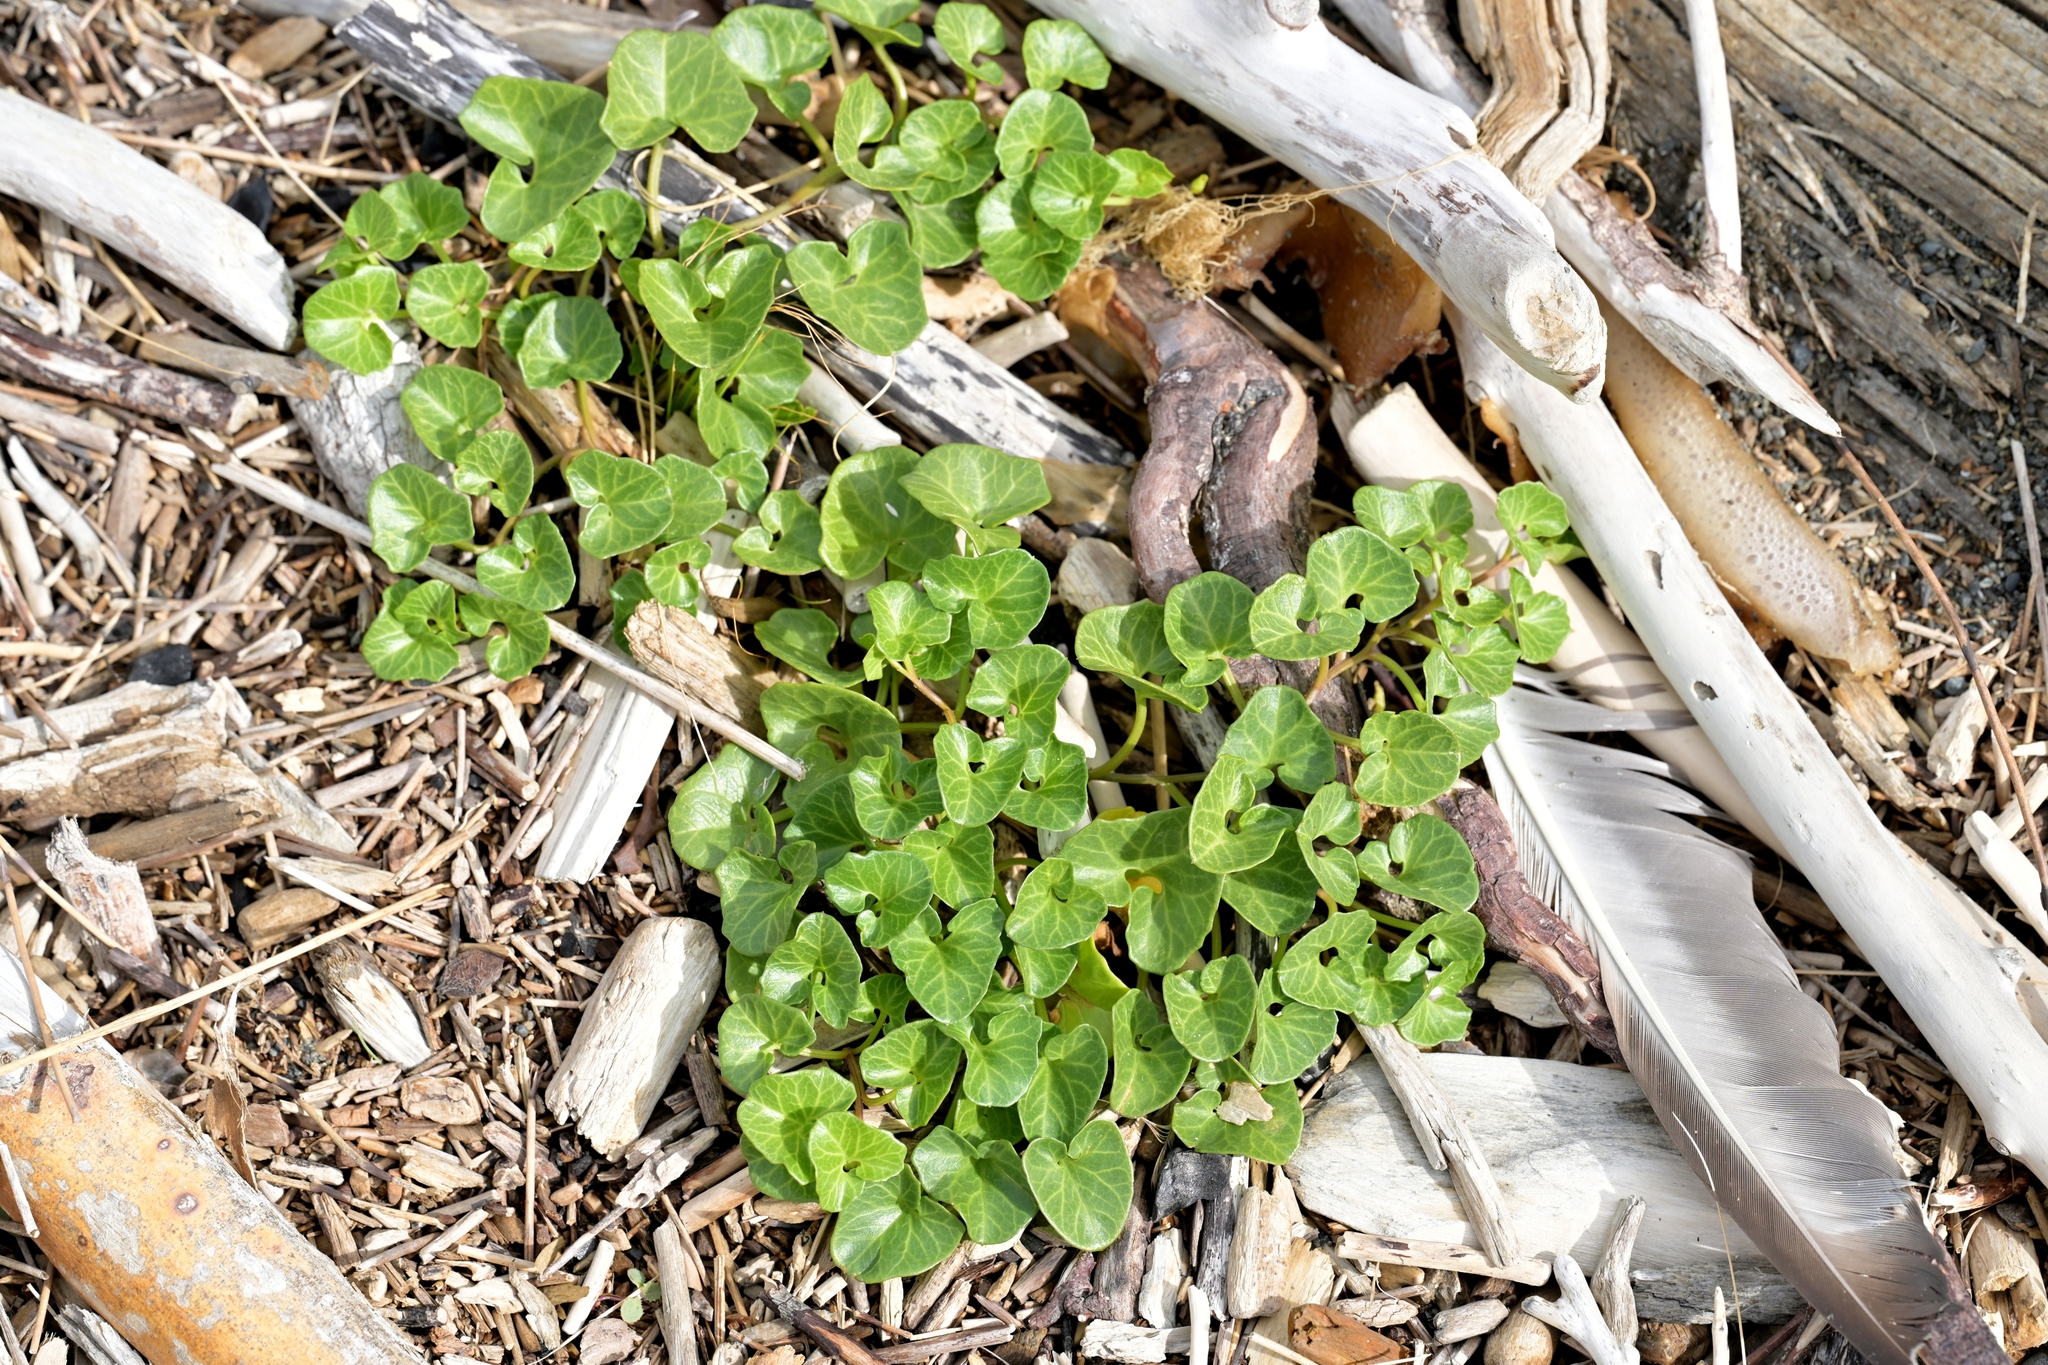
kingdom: Plantae
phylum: Tracheophyta
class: Magnoliopsida
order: Solanales
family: Convolvulaceae
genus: Calystegia
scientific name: Calystegia soldanella
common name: Sea bindweed
